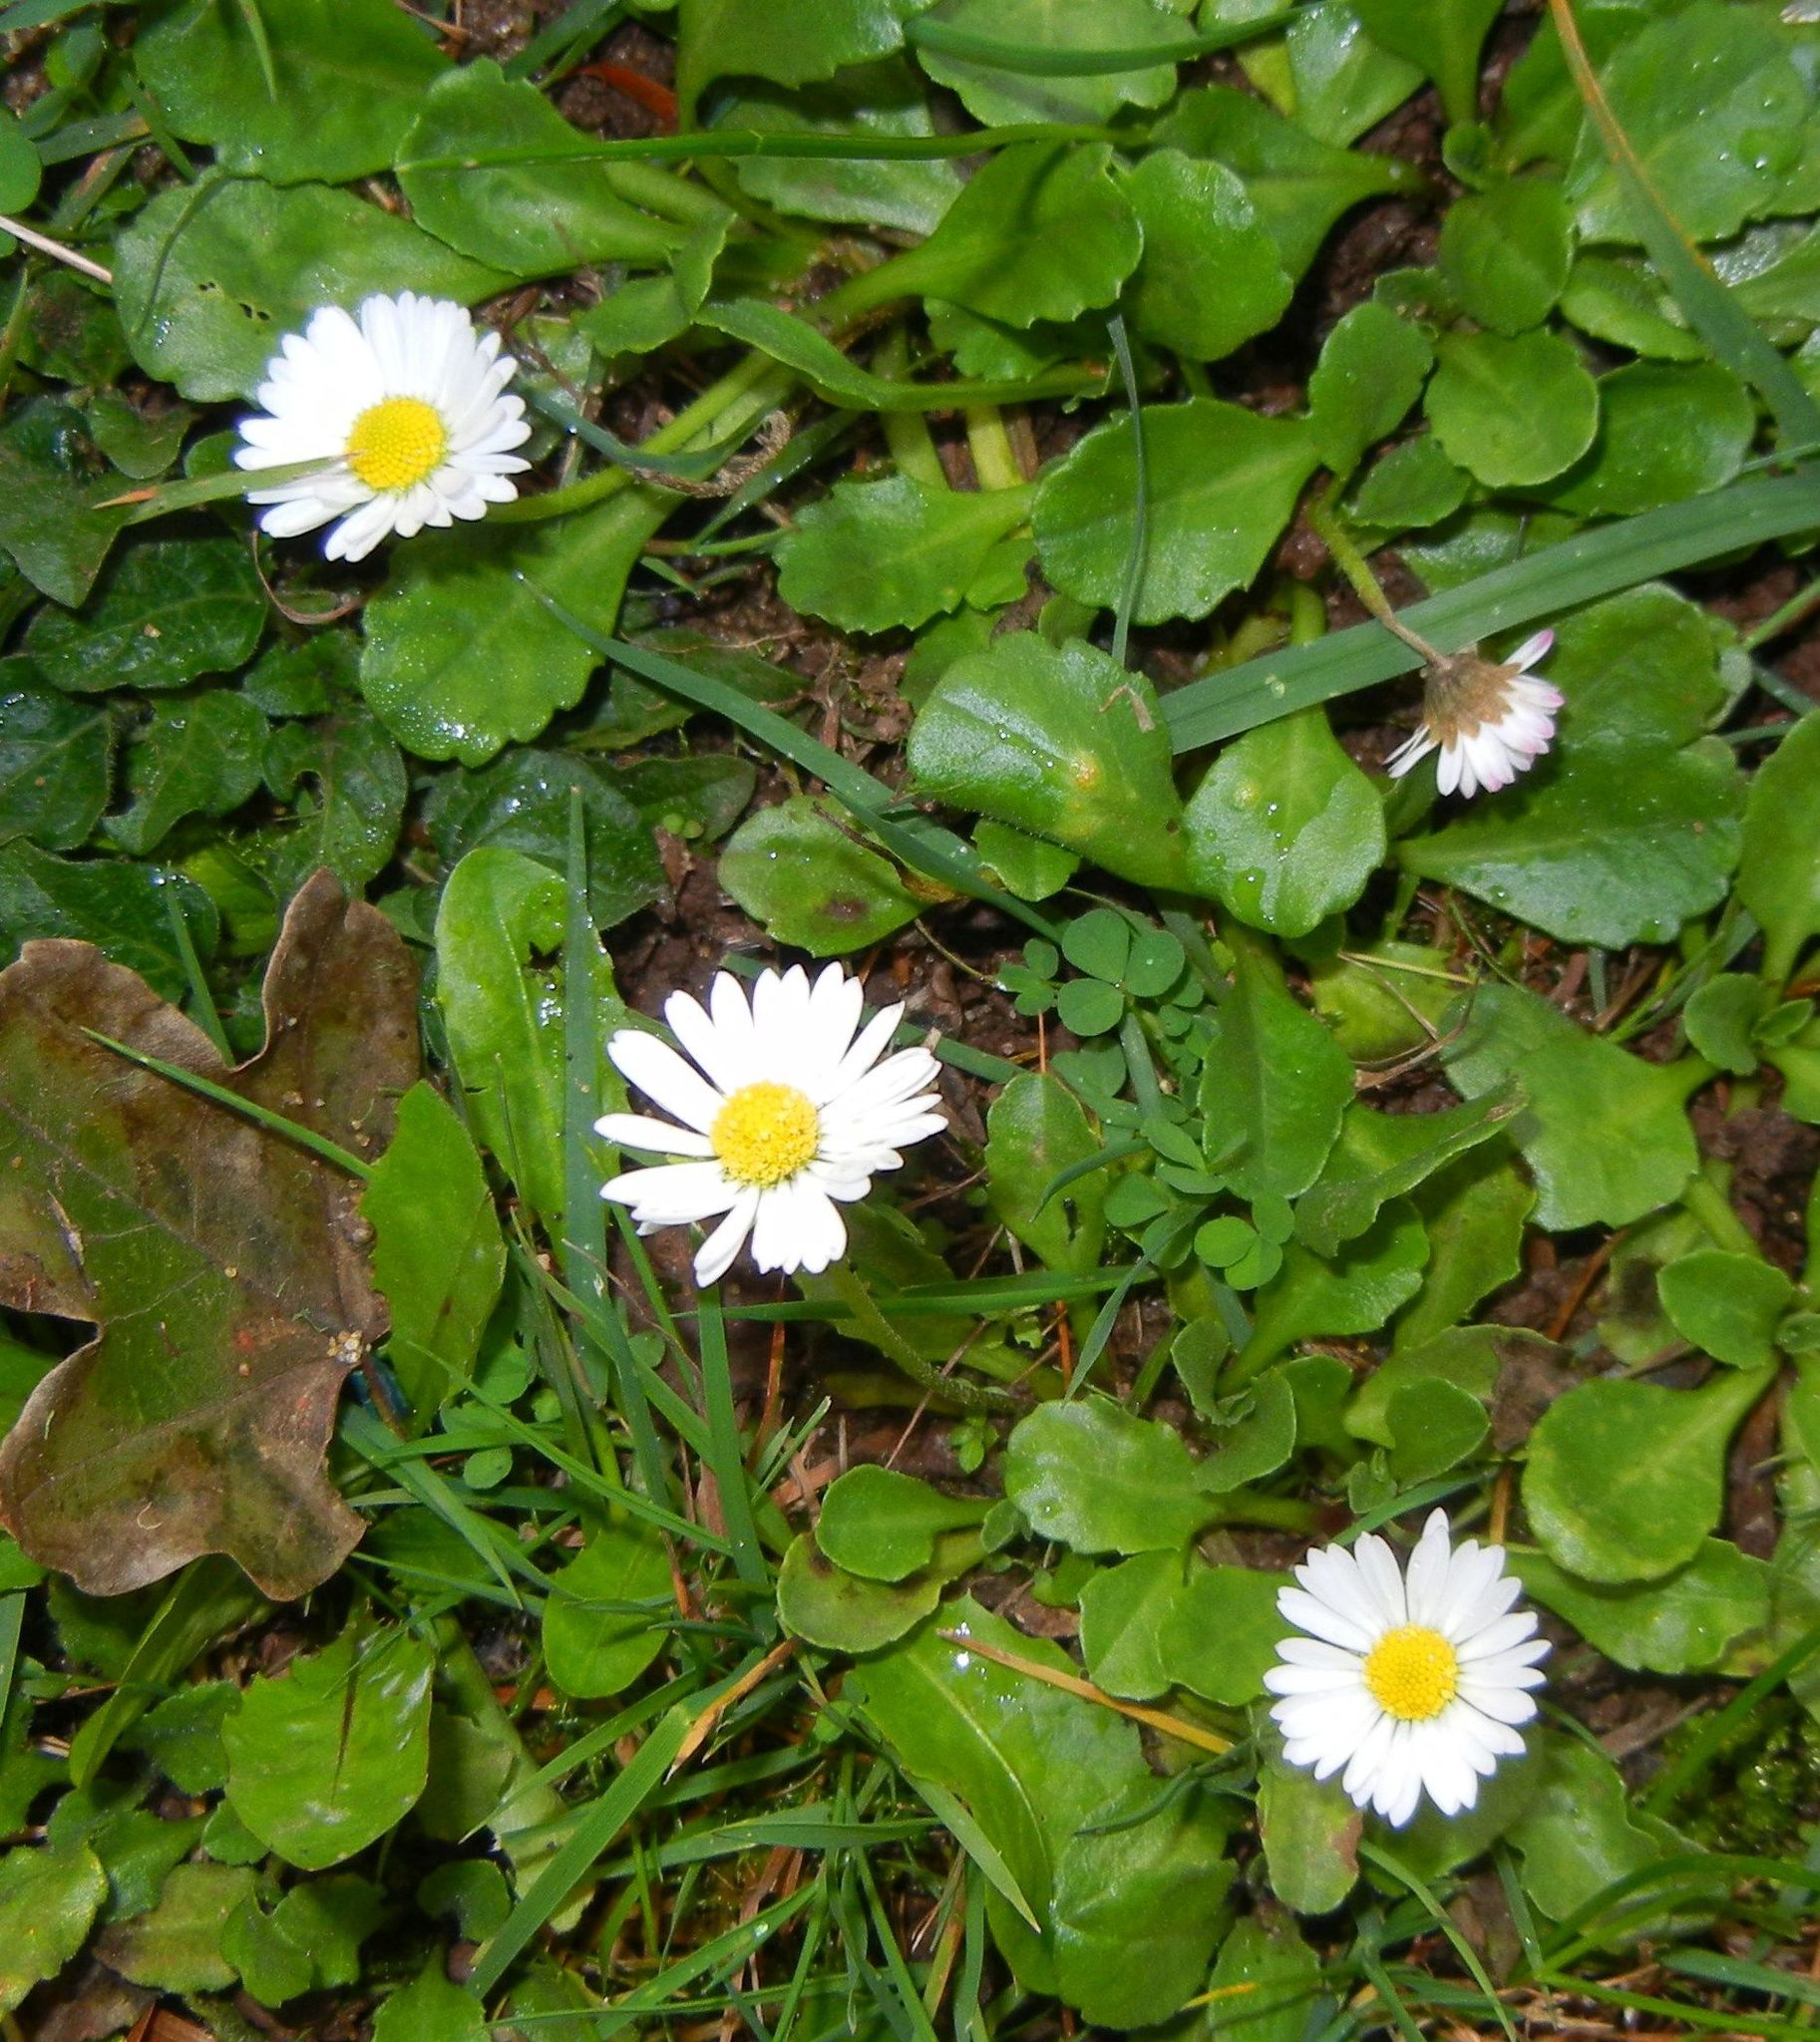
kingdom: Plantae
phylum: Tracheophyta
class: Magnoliopsida
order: Asterales
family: Asteraceae
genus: Bellis
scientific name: Bellis perennis
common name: Lawndaisy
